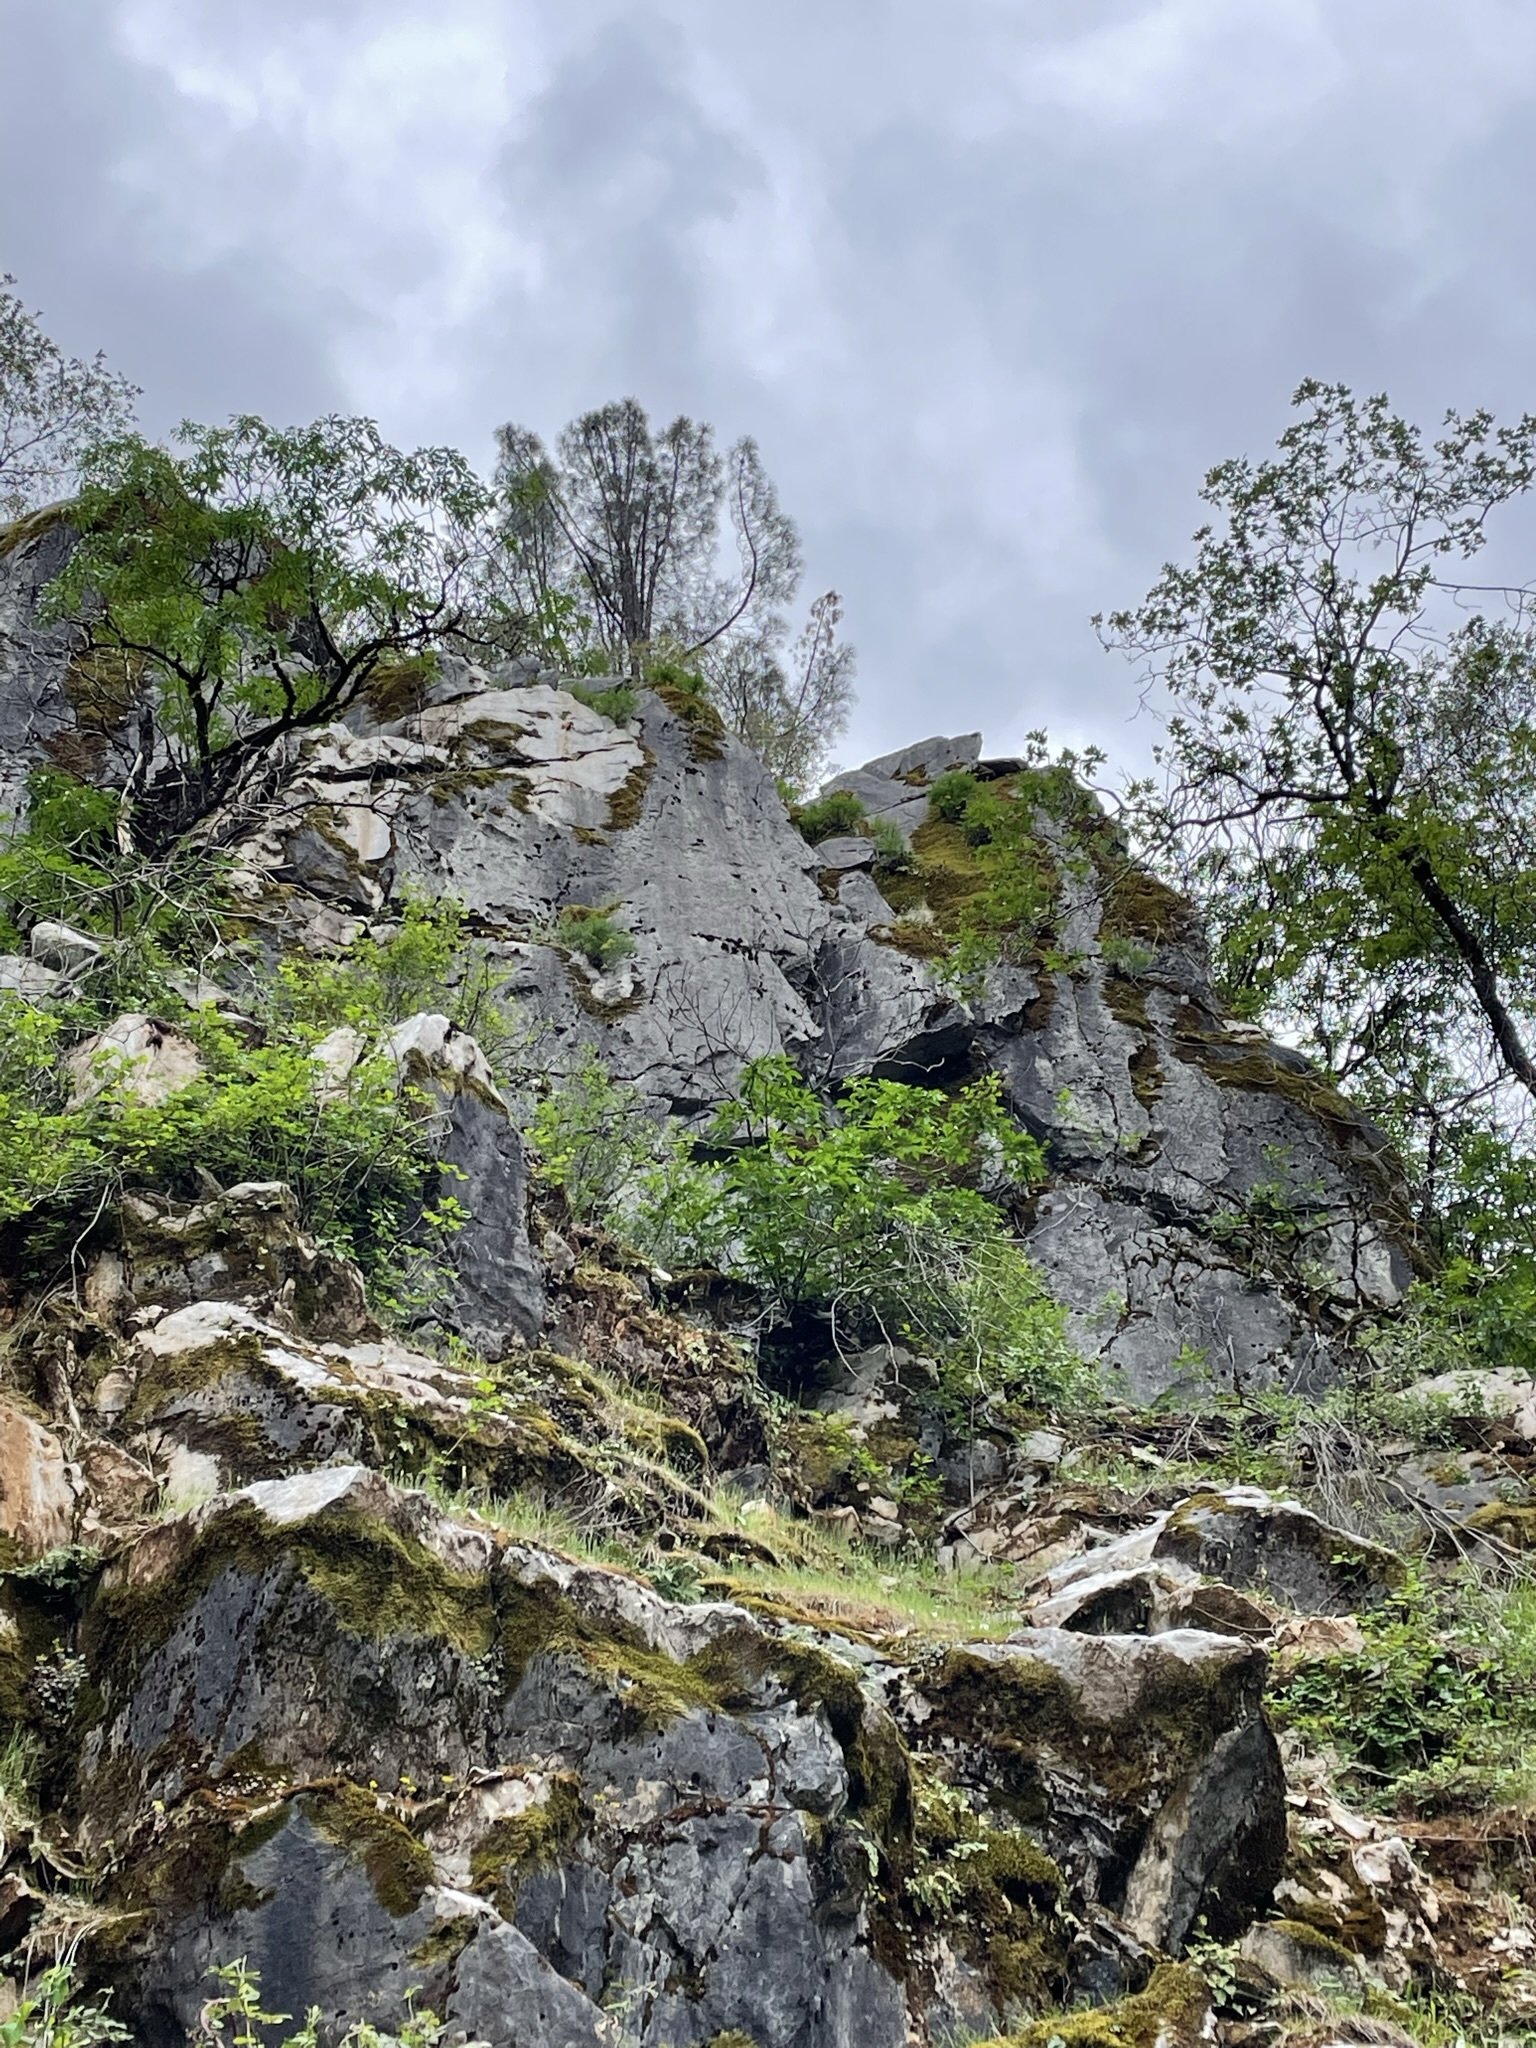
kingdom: Plantae
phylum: Tracheophyta
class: Magnoliopsida
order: Apiales
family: Apiaceae
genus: Pteryxia
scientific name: Pteryxia terebinthina
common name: Turpentine wavewing
